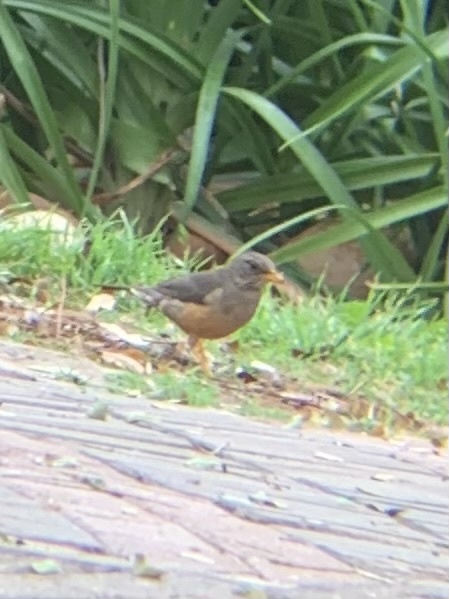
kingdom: Animalia
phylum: Chordata
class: Aves
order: Passeriformes
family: Turdidae
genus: Turdus
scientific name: Turdus olivaceus
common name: Olive thrush
